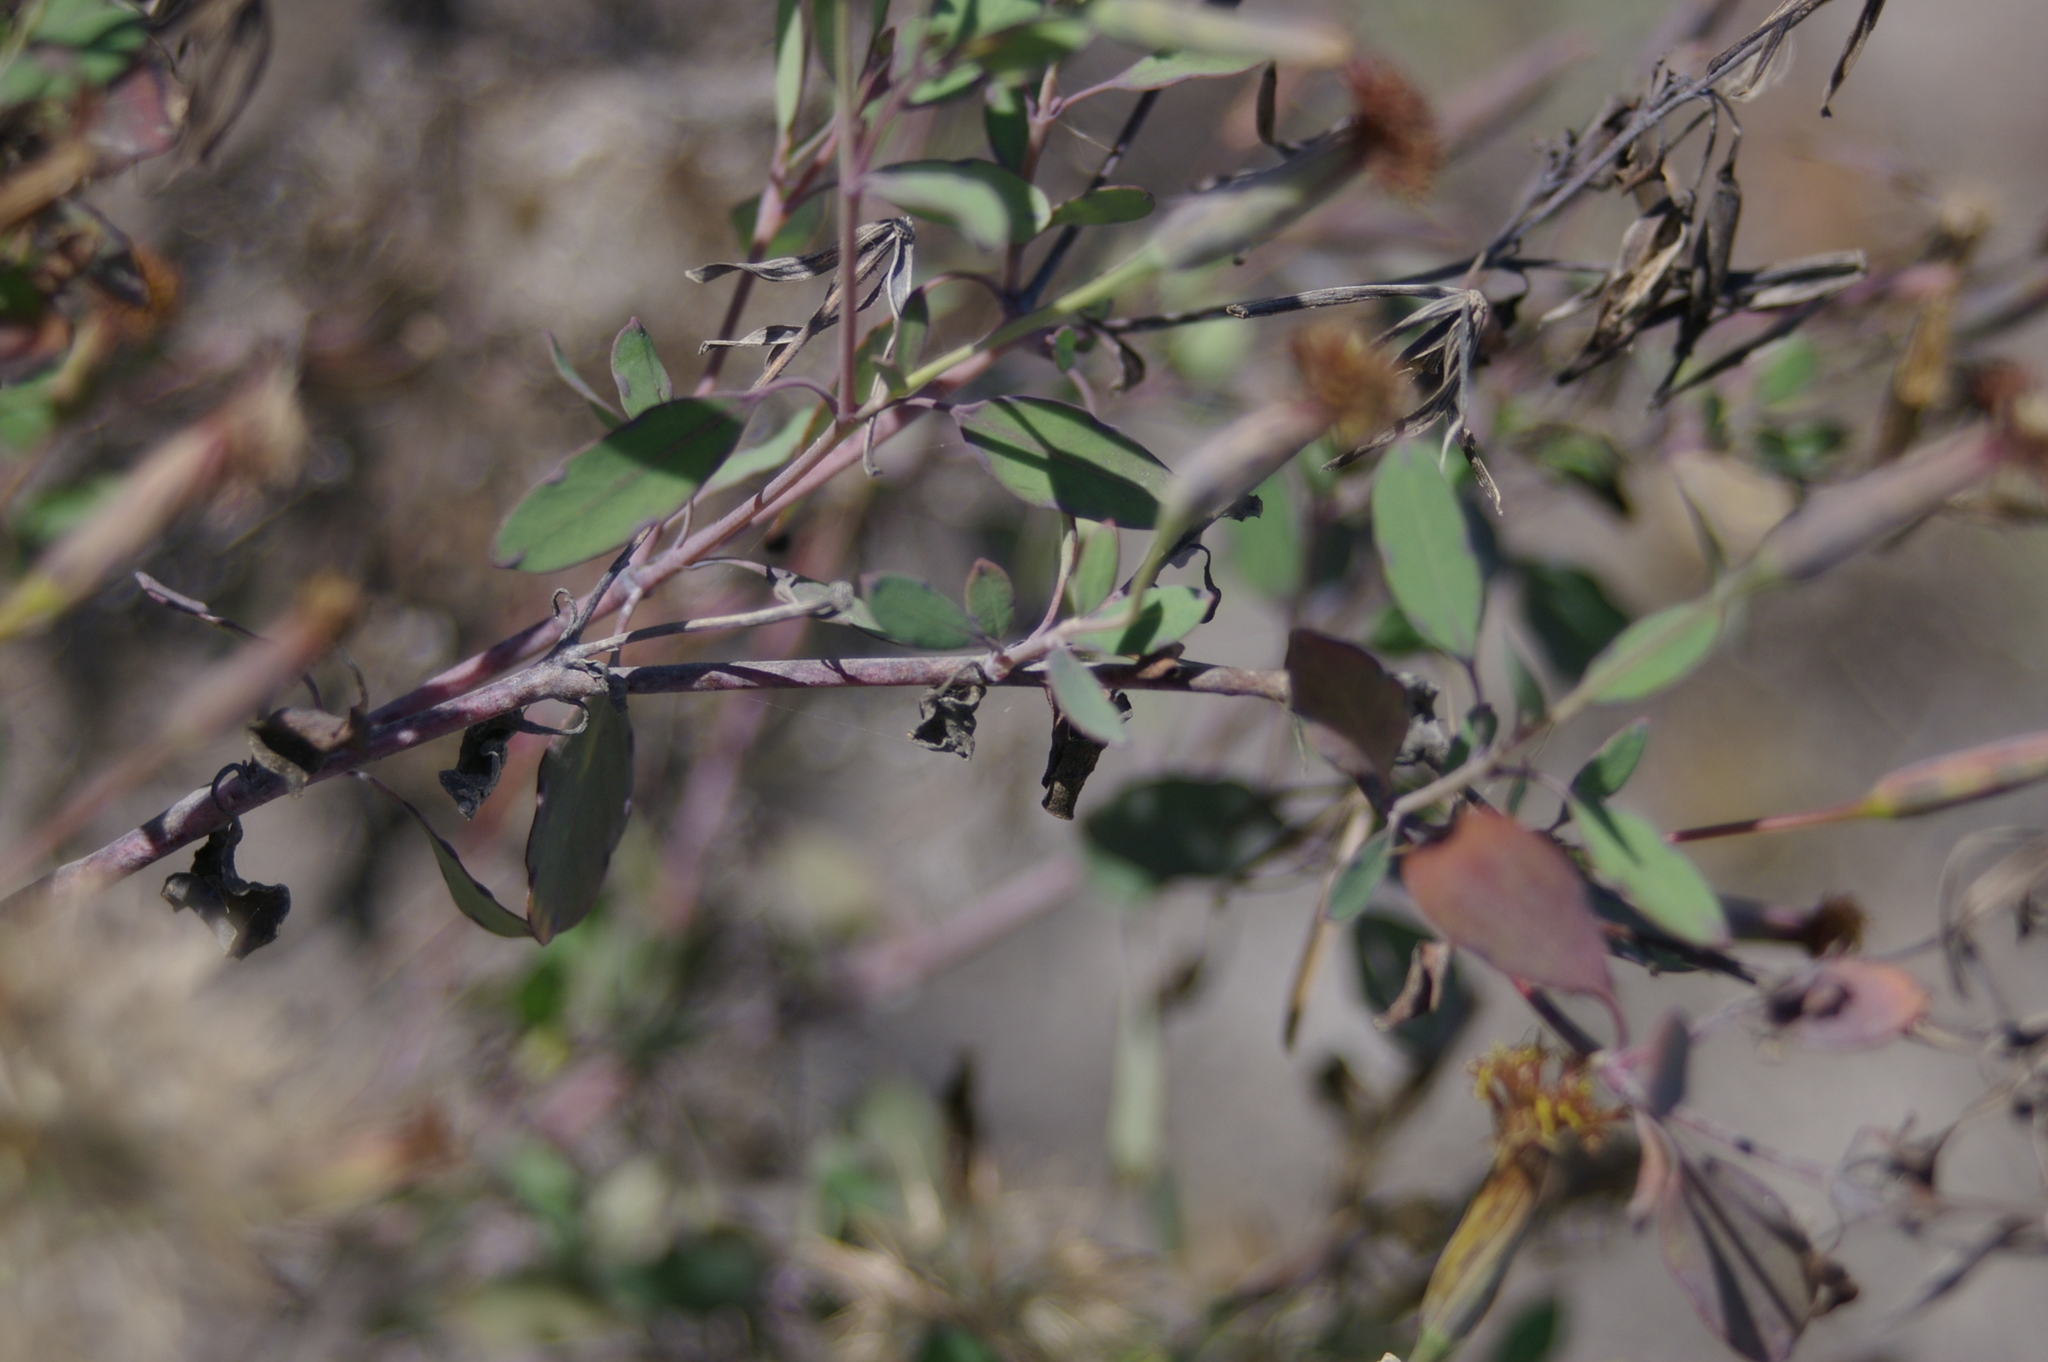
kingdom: Plantae
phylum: Tracheophyta
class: Magnoliopsida
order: Asterales
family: Asteraceae
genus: Porophyllum
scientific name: Porophyllum ruderale
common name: Yerba porosa
